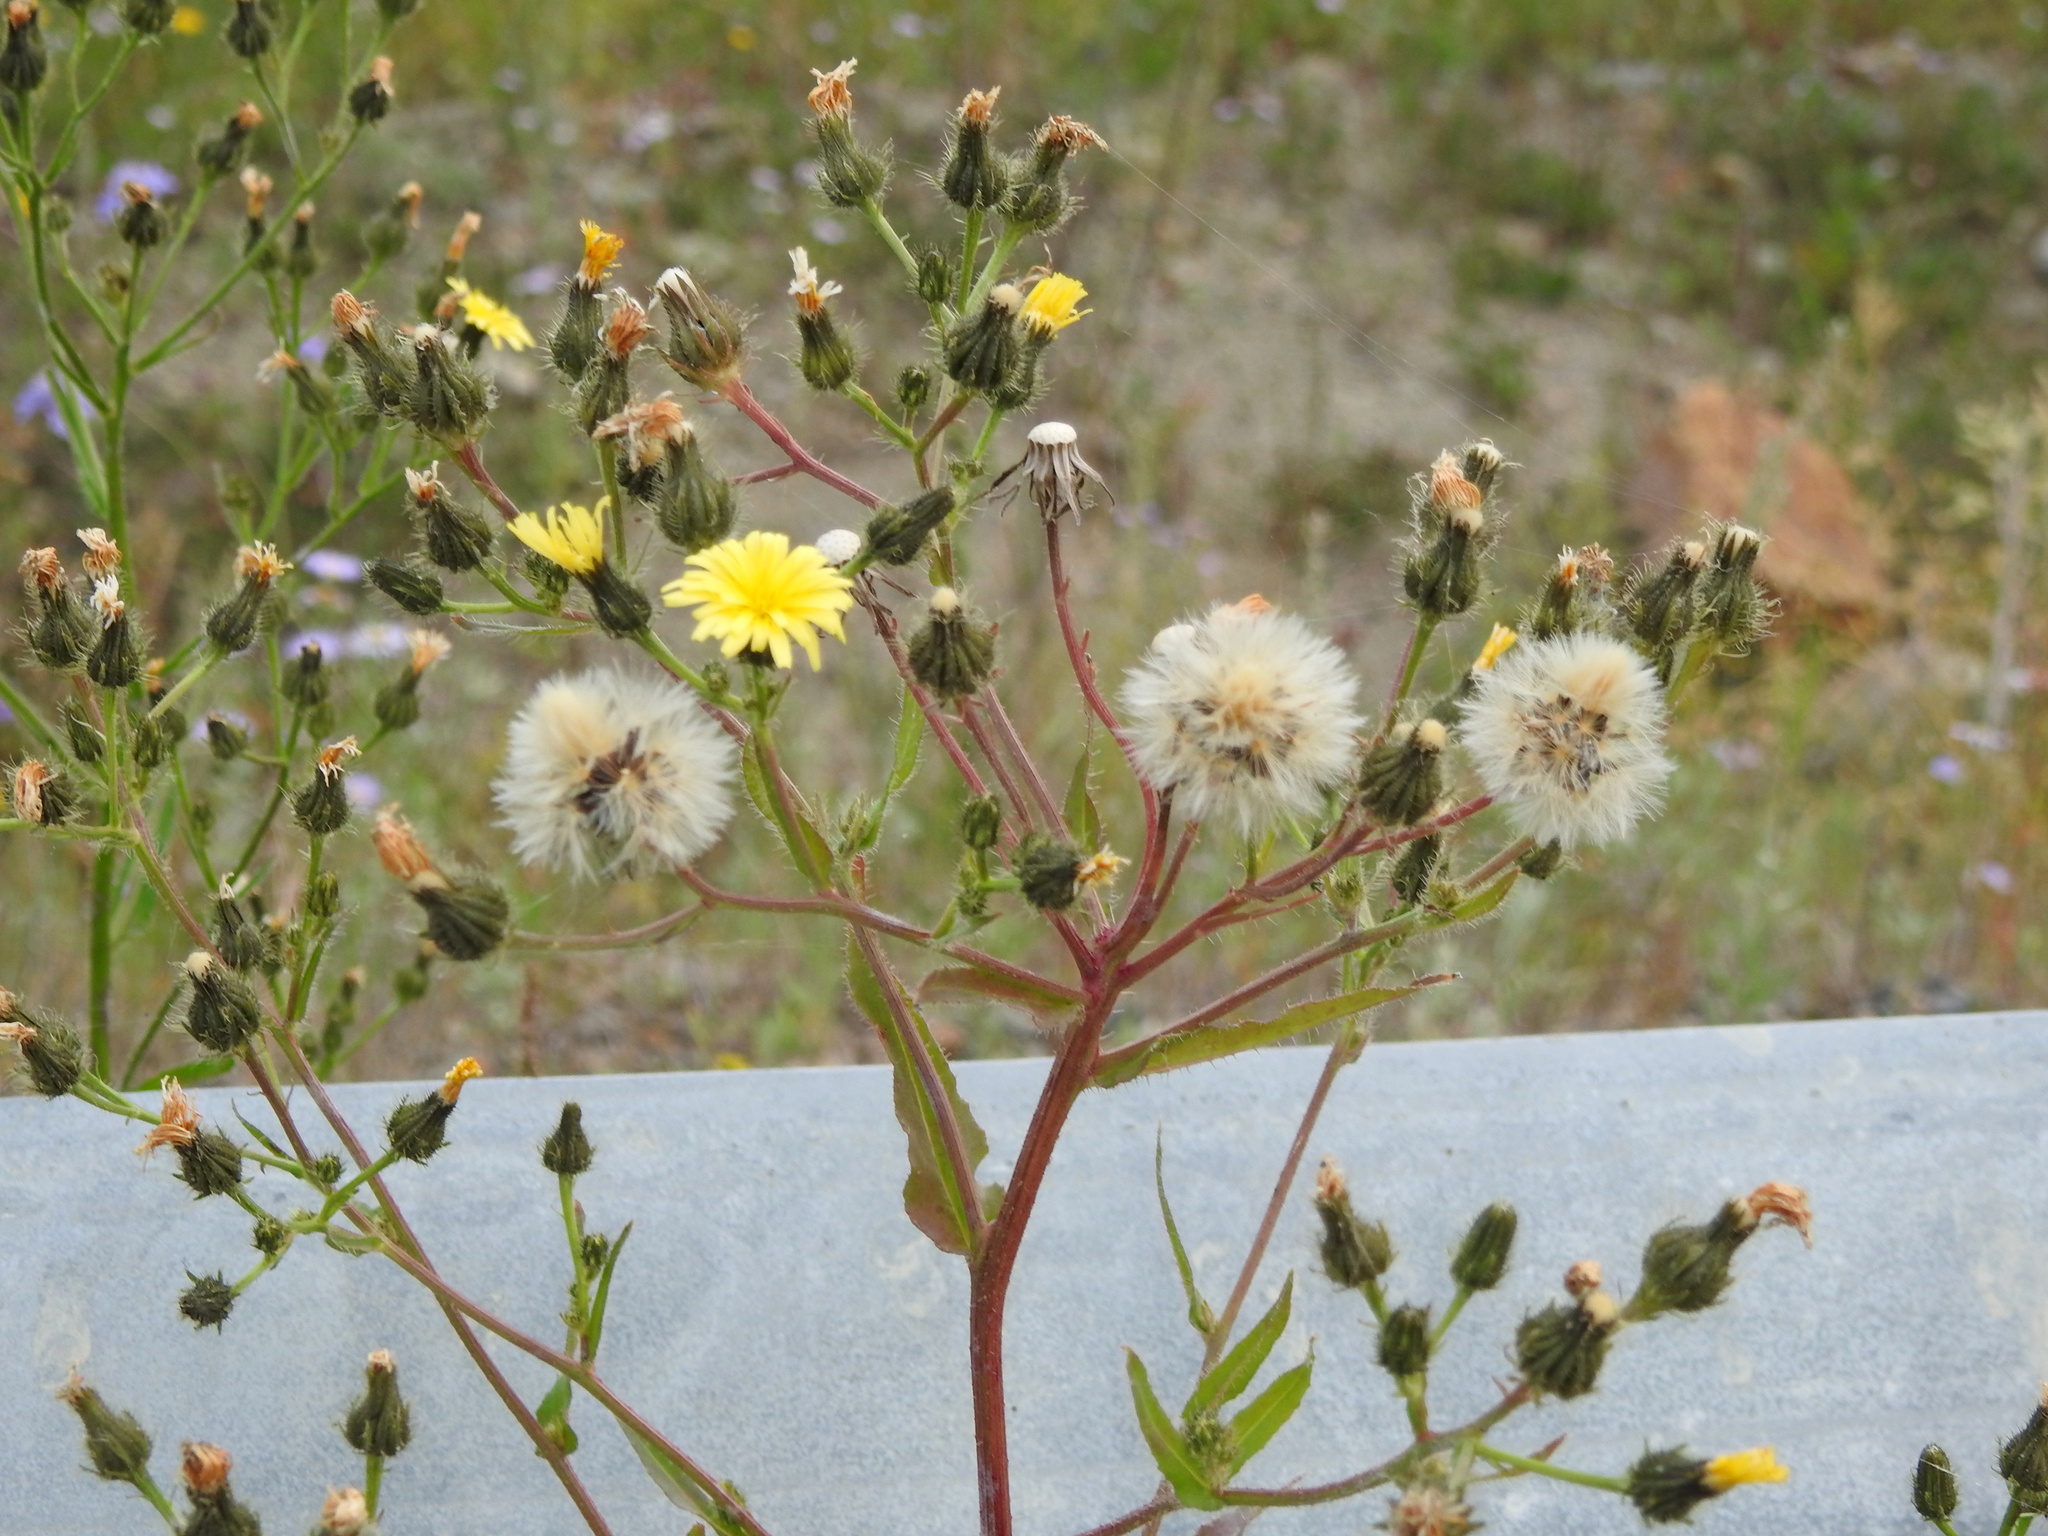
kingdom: Plantae
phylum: Tracheophyta
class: Magnoliopsida
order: Asterales
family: Asteraceae
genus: Picris
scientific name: Picris davurica
